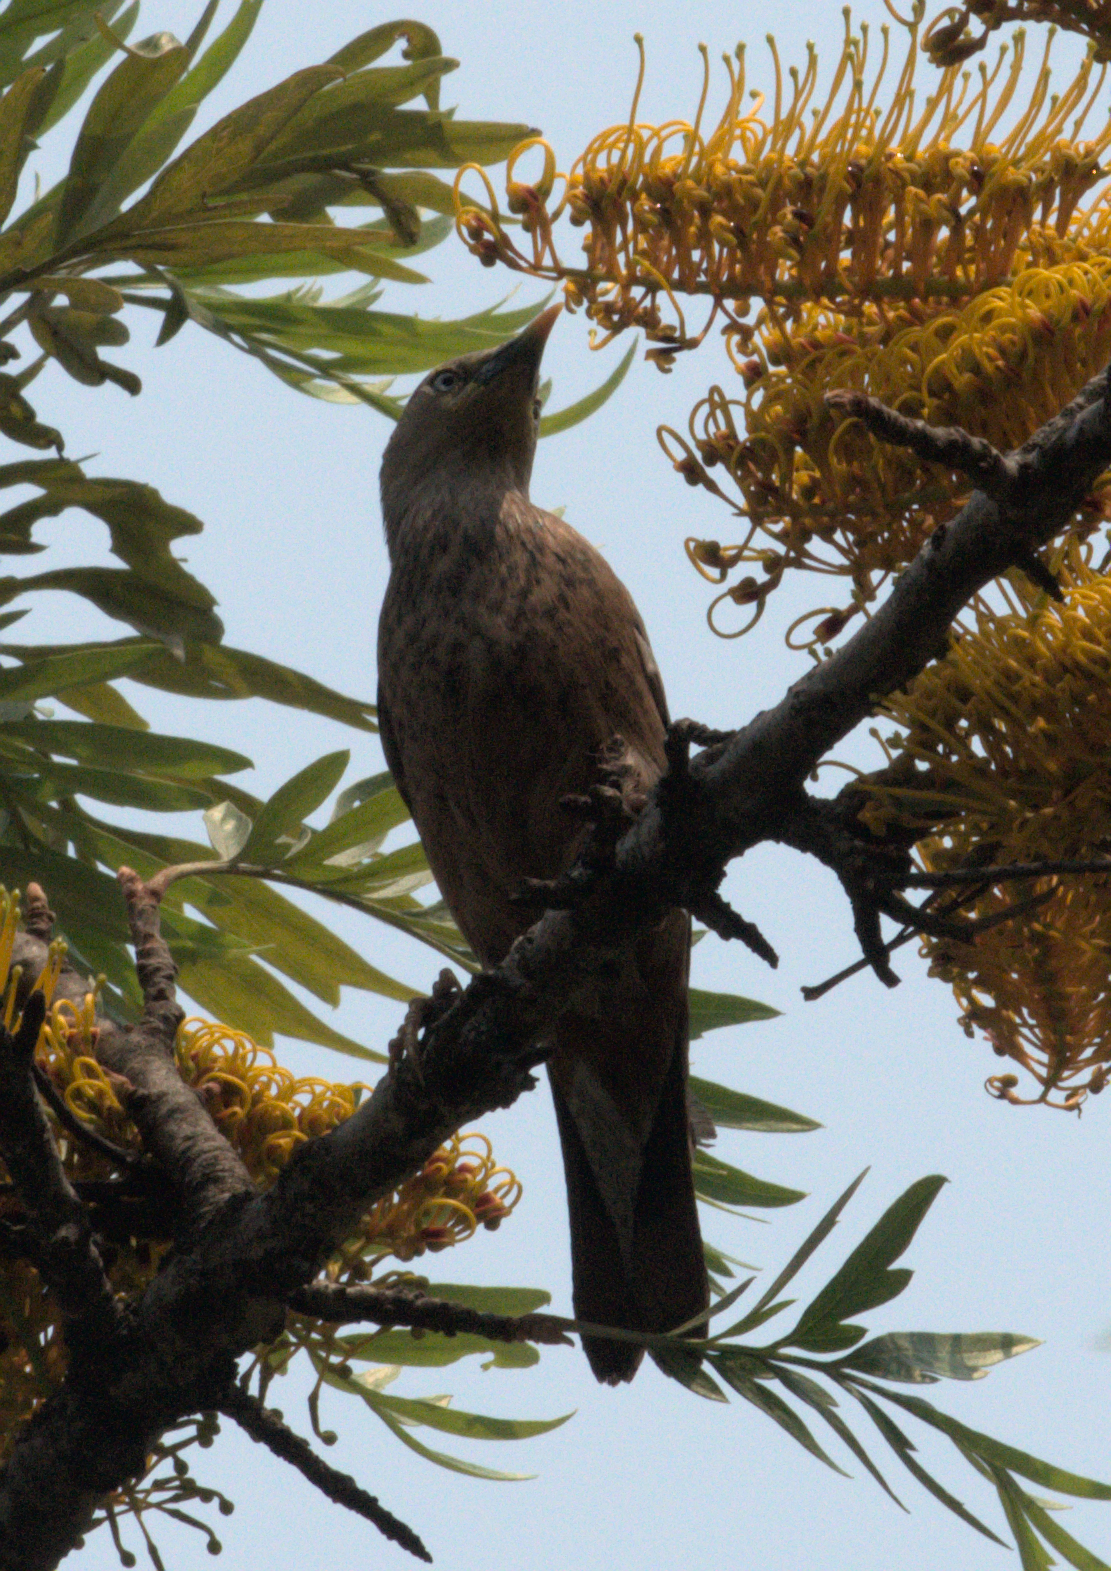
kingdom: Animalia
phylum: Chordata
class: Aves
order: Passeriformes
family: Sturnidae
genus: Sturnia
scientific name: Sturnia malabarica
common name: Chestnut-tailed starling
